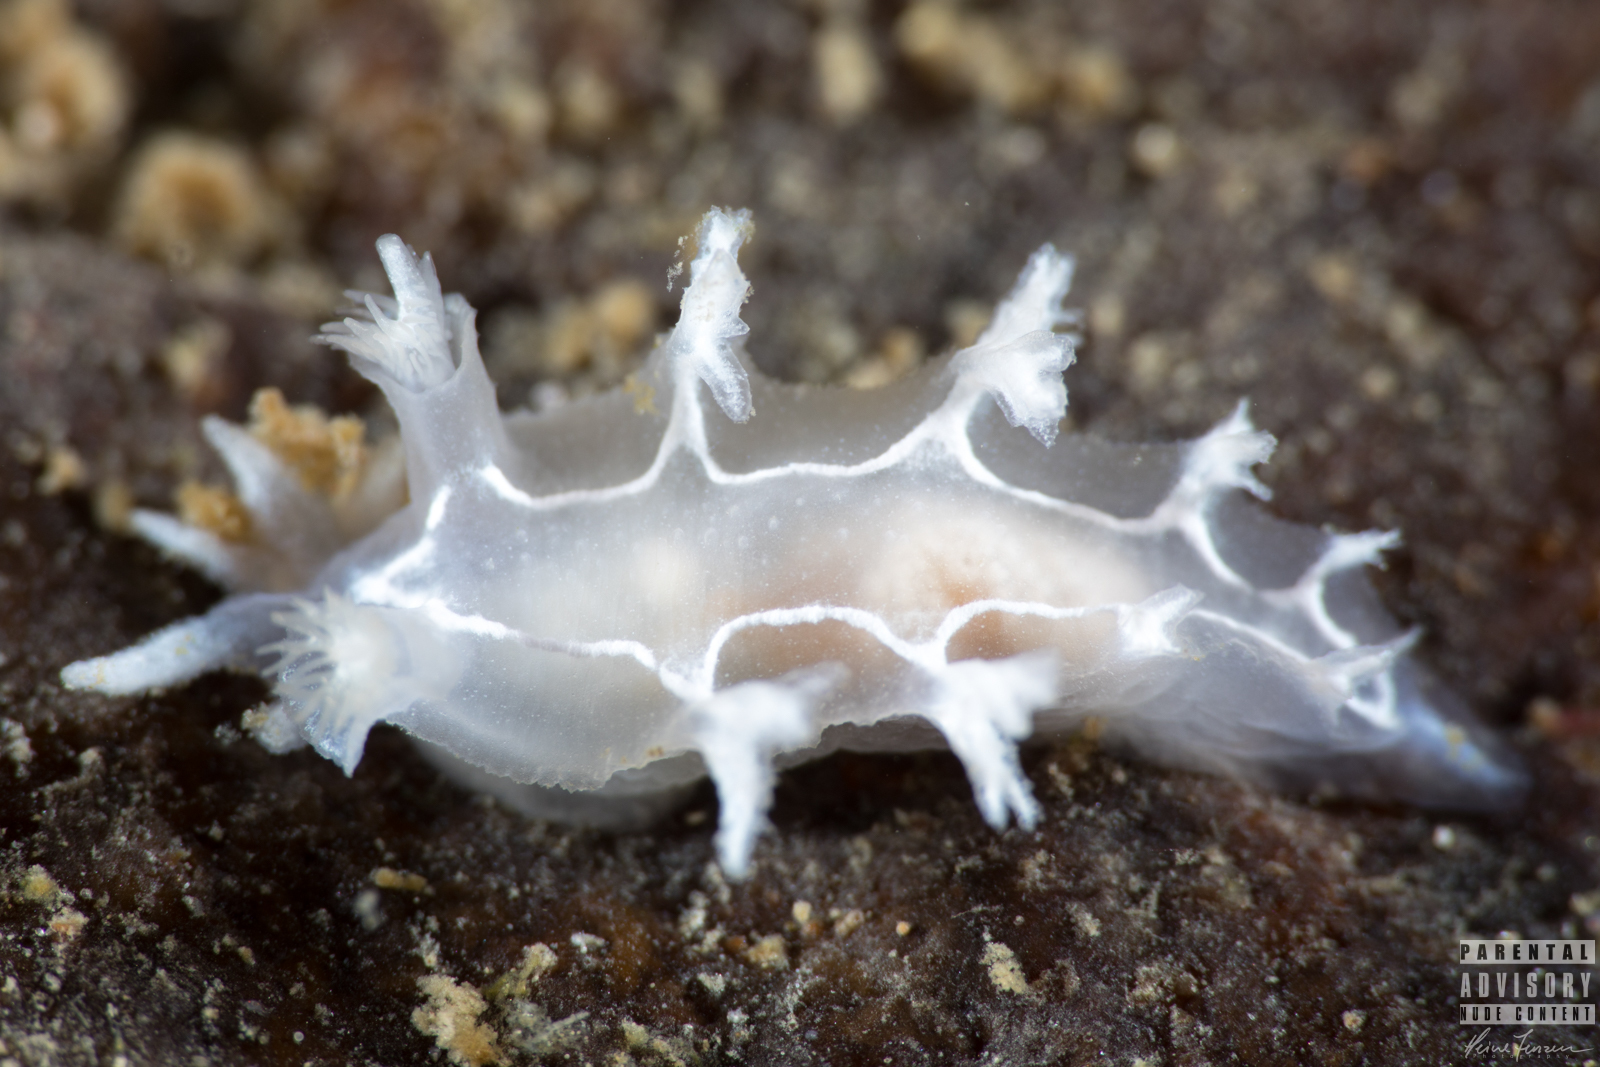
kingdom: Animalia
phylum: Mollusca
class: Gastropoda
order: Nudibranchia
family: Tritoniidae
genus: Duvaucelia
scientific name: Duvaucelia lineata
